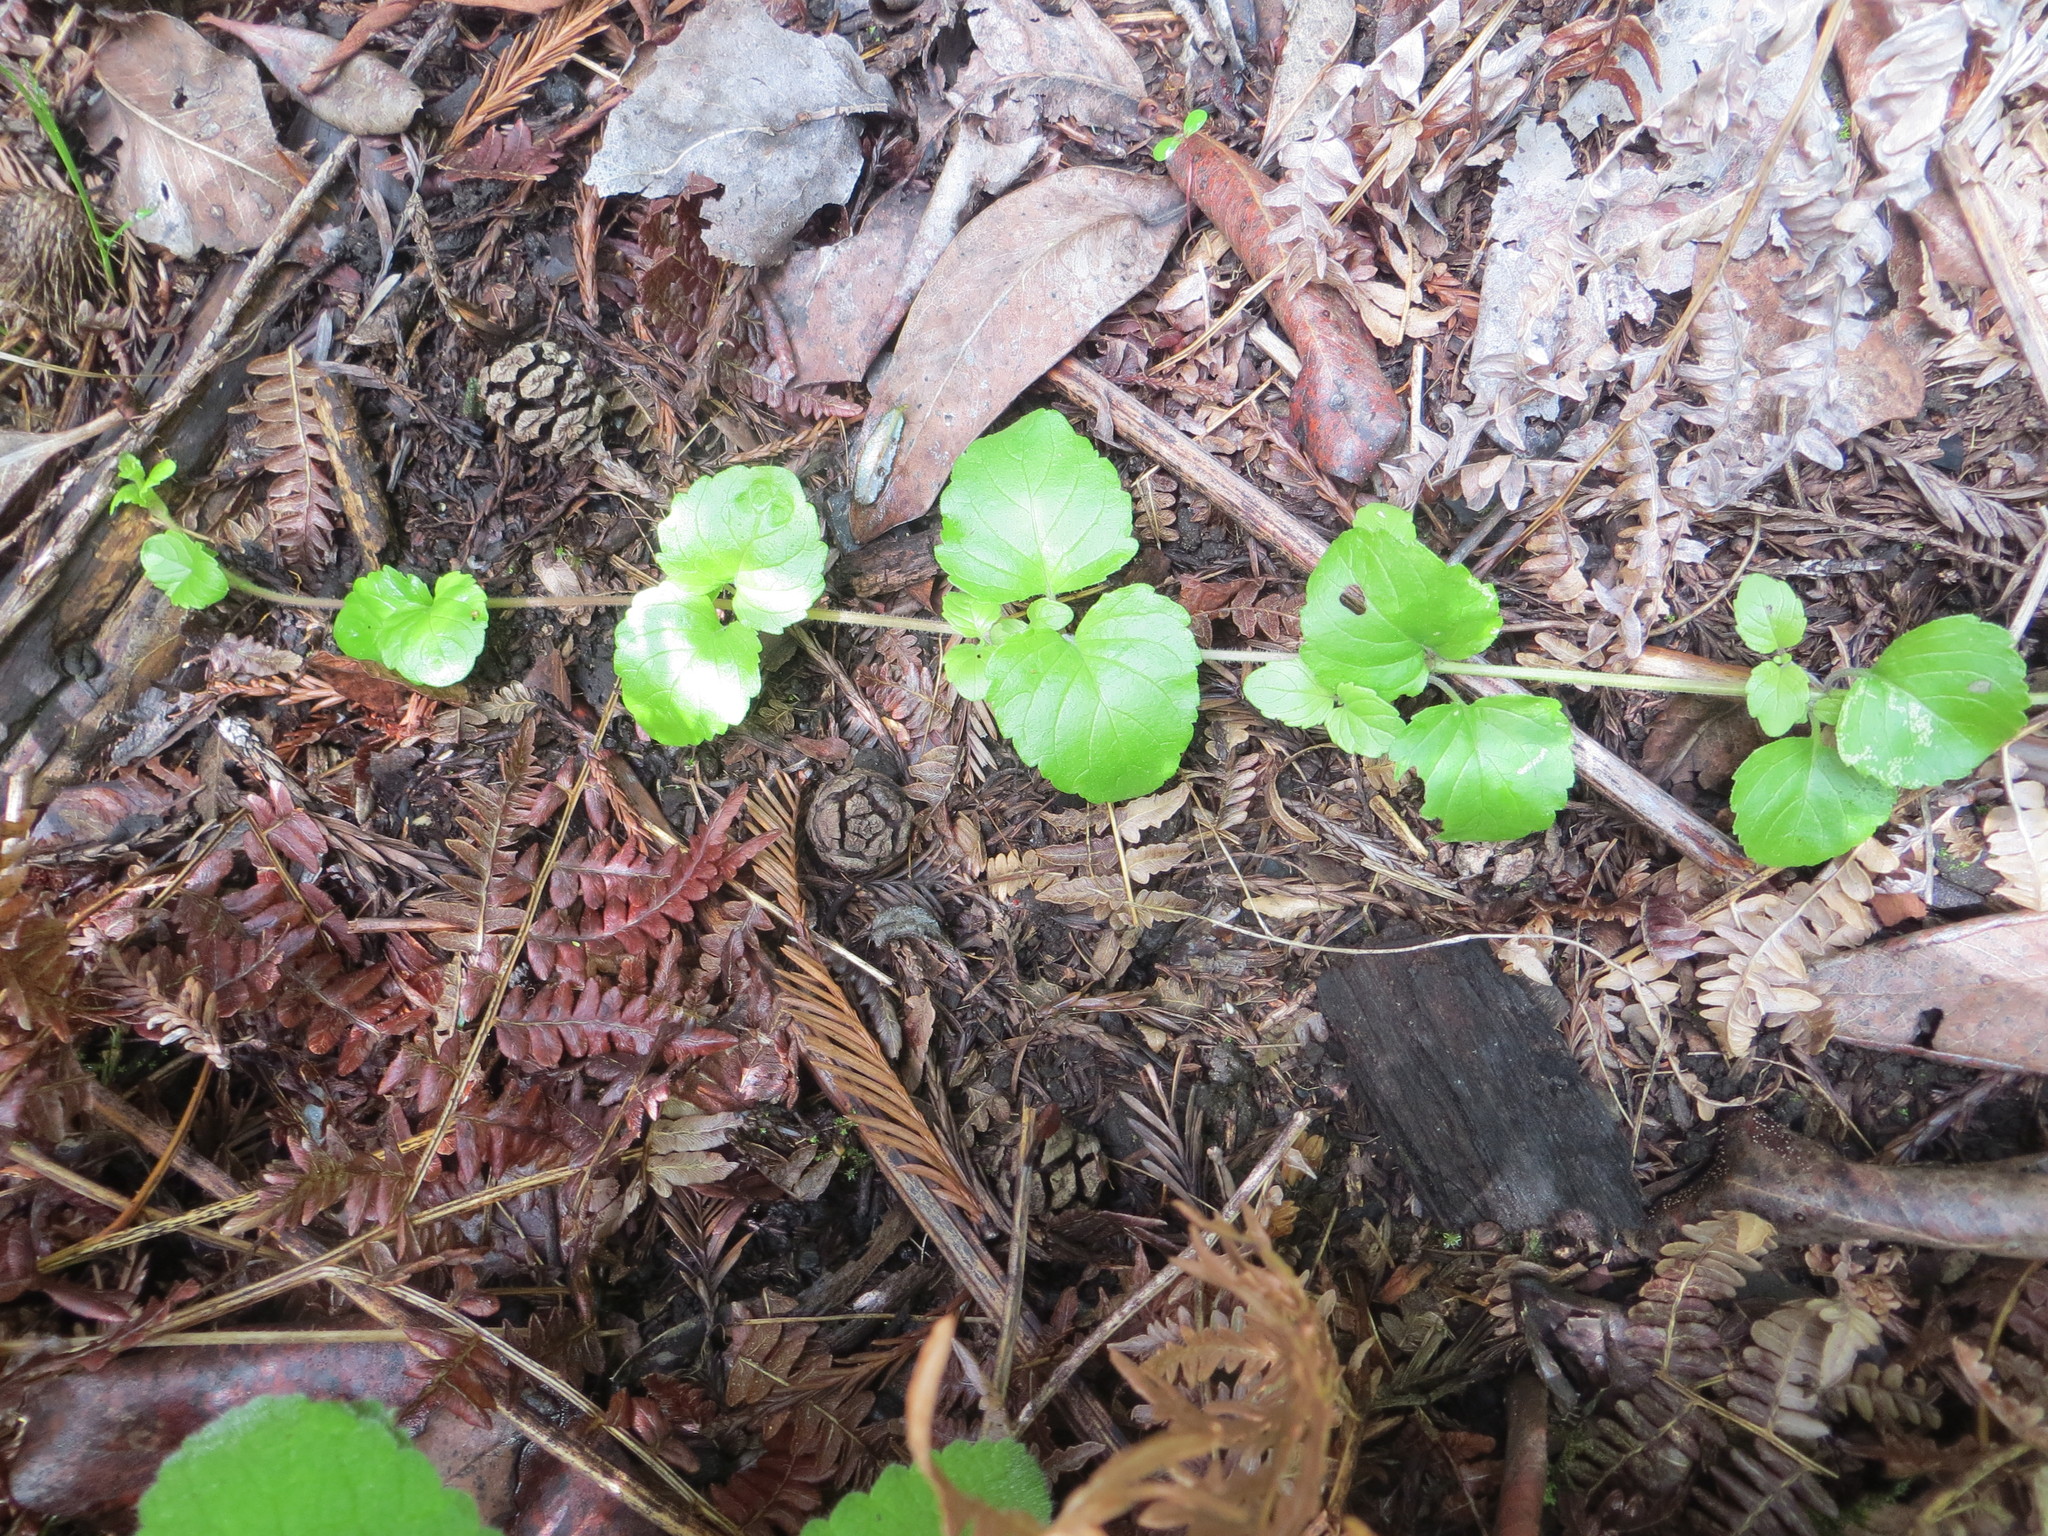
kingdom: Plantae
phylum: Tracheophyta
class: Magnoliopsida
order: Lamiales
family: Lamiaceae
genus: Micromeria
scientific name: Micromeria douglasii
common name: Yerba buena
